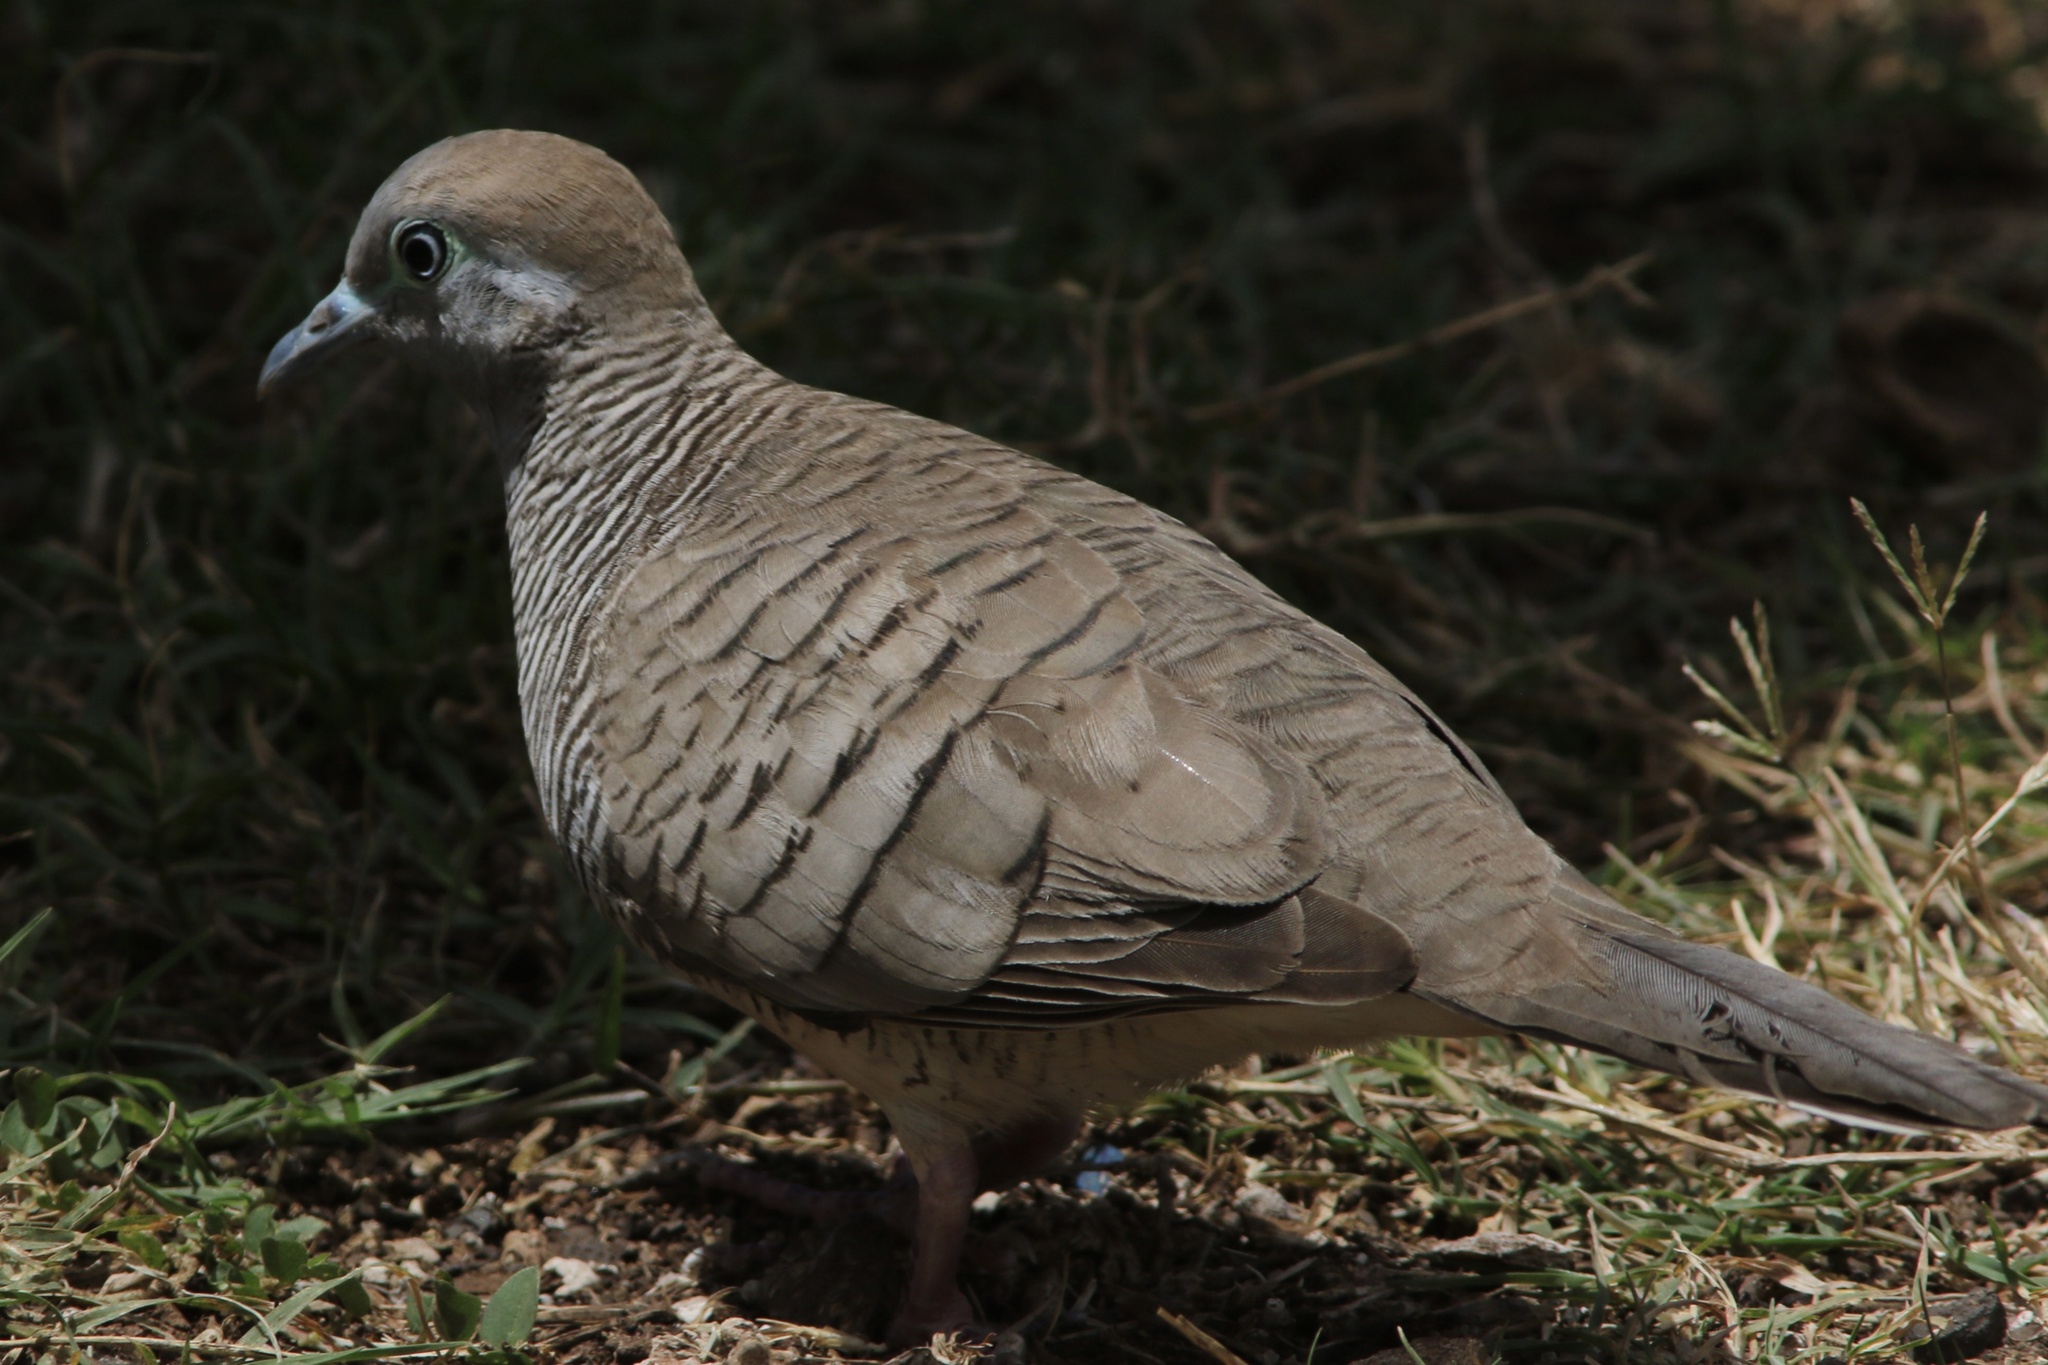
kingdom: Animalia
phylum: Chordata
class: Aves
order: Columbiformes
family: Columbidae
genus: Geopelia
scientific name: Geopelia striata
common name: Zebra dove
